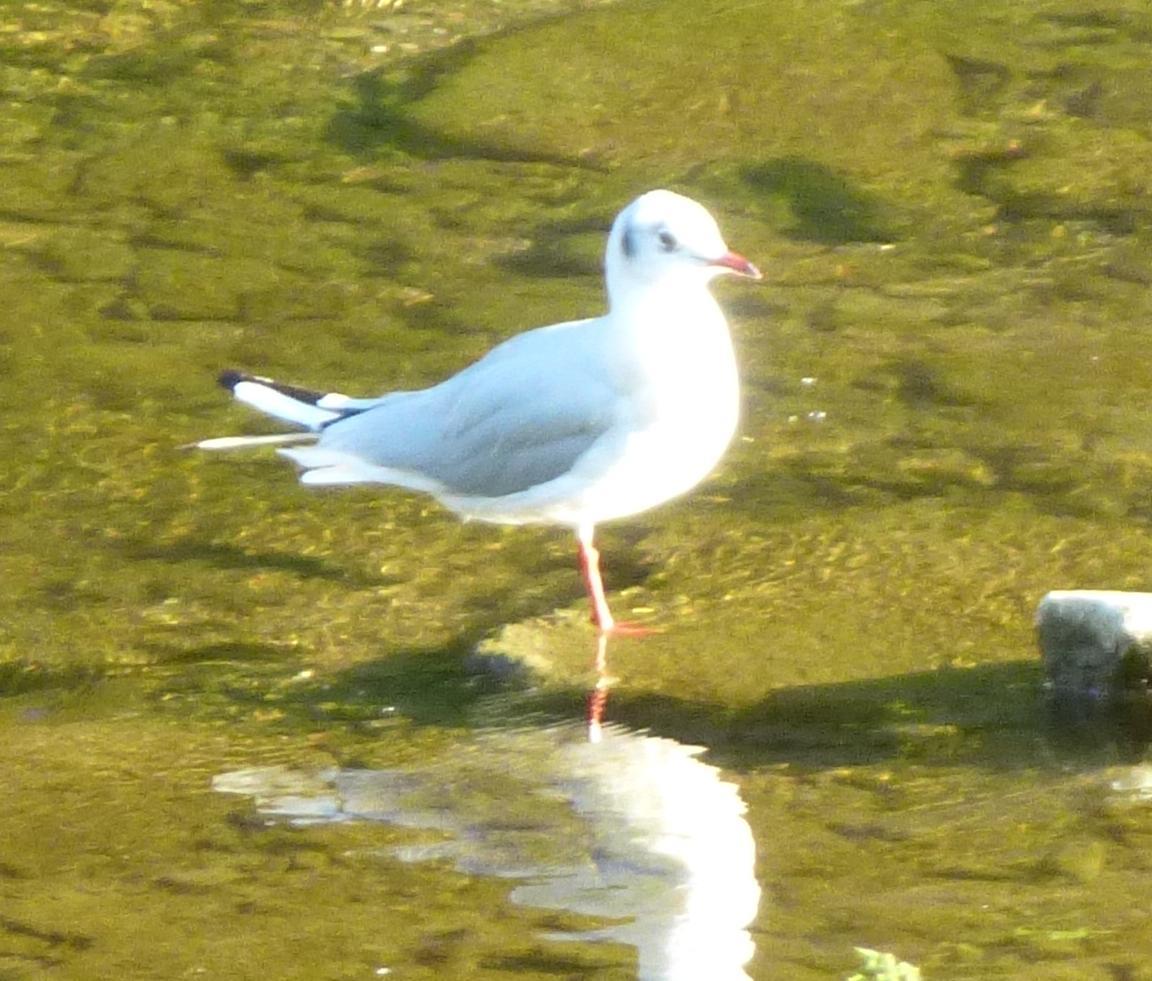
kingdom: Animalia
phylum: Chordata
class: Aves
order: Charadriiformes
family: Laridae
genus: Chroicocephalus
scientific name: Chroicocephalus ridibundus
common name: Black-headed gull
